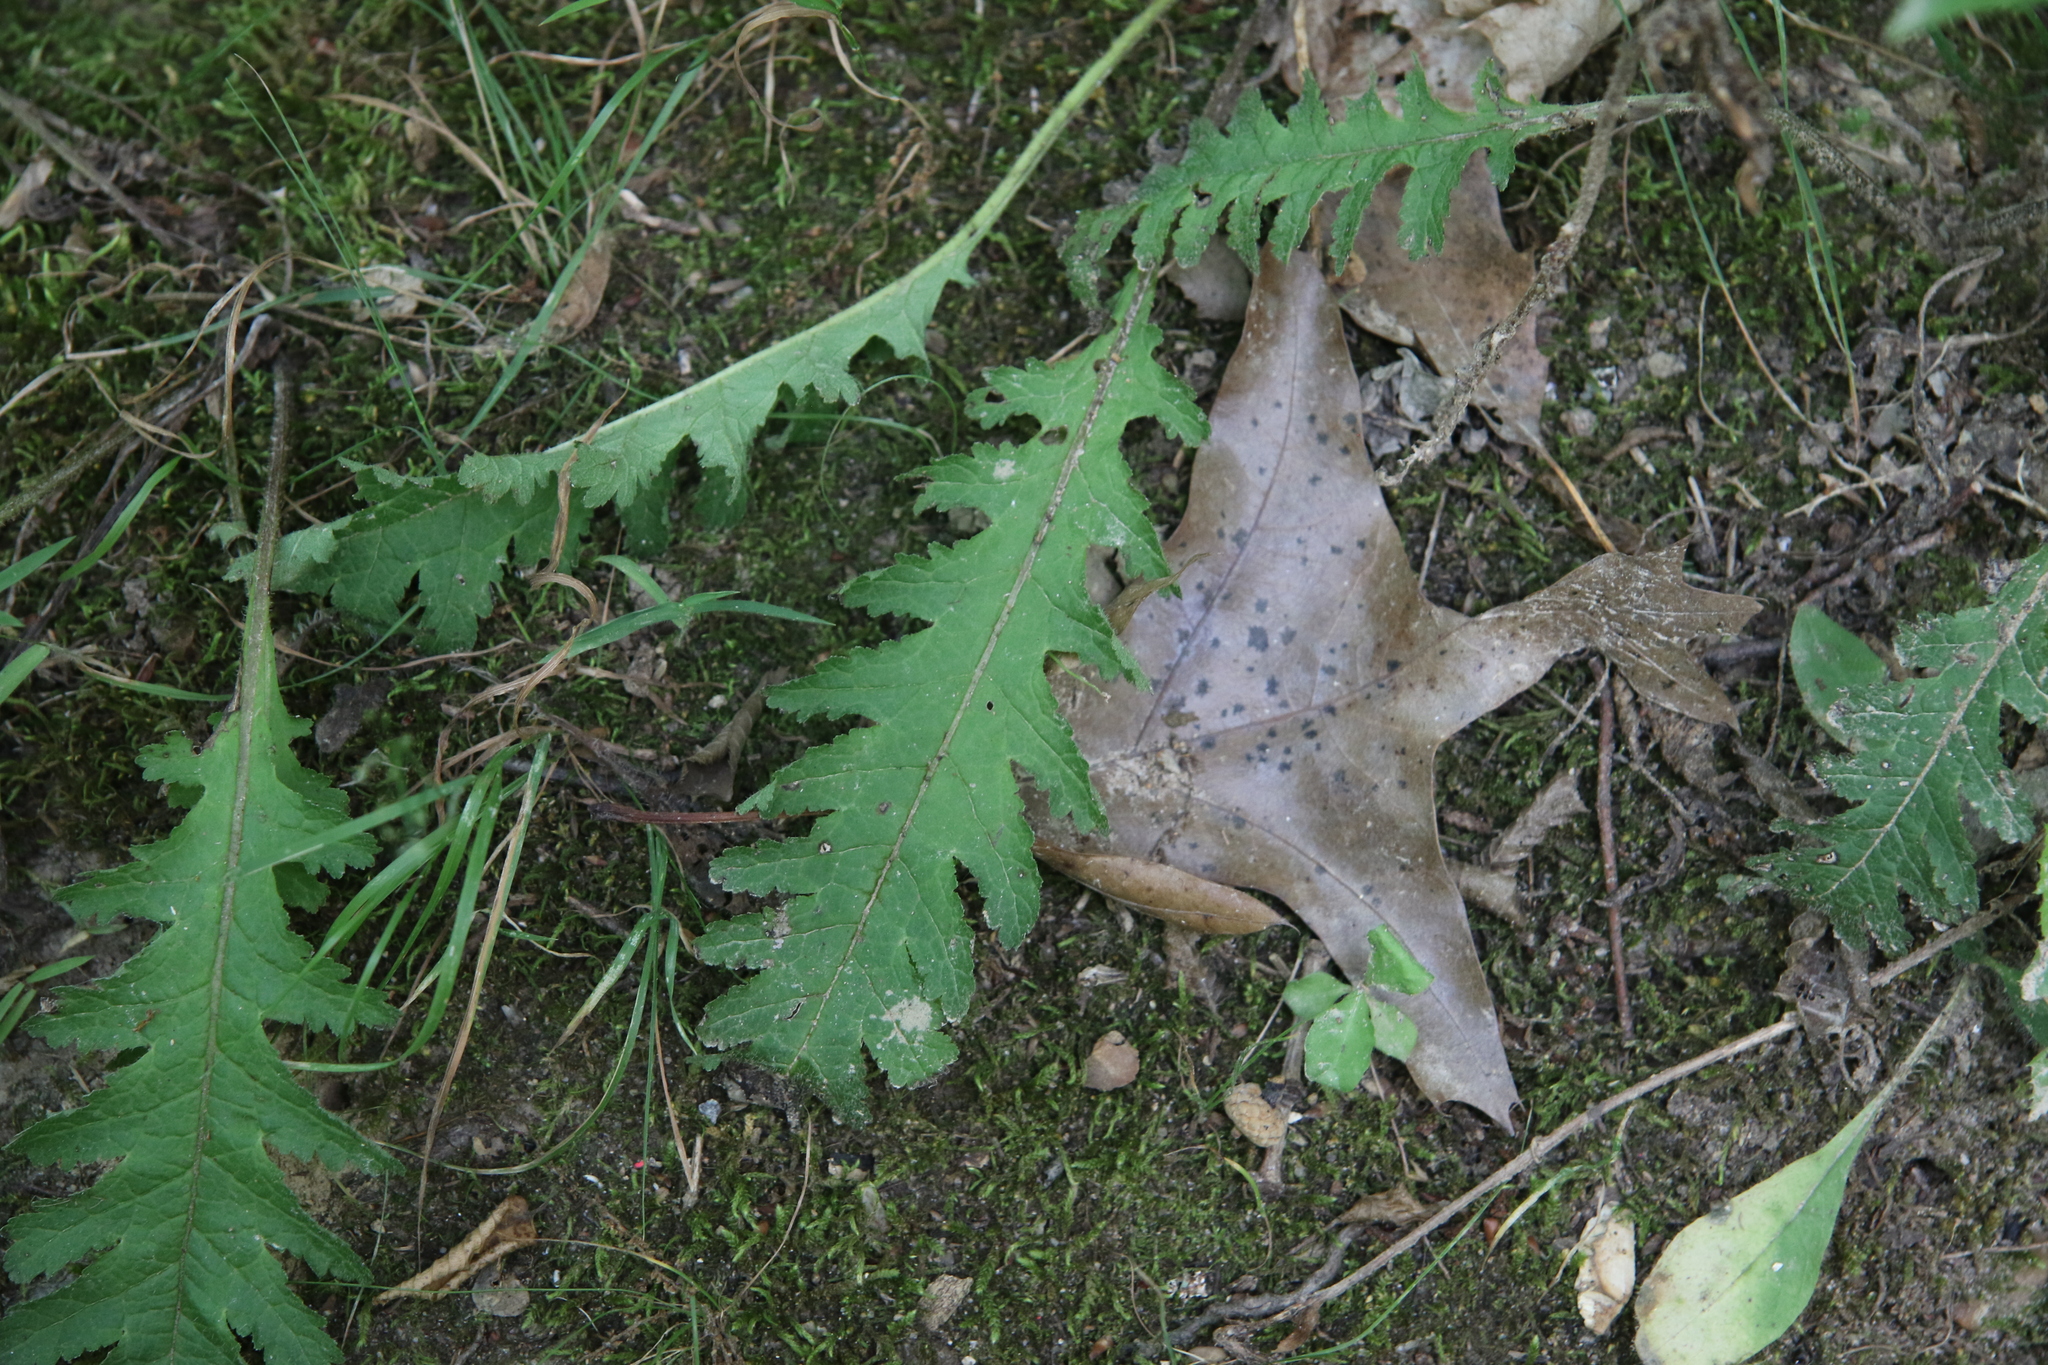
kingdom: Plantae
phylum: Tracheophyta
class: Magnoliopsida
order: Lamiales
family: Orobanchaceae
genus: Pedicularis
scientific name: Pedicularis canadensis
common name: Early lousewort
